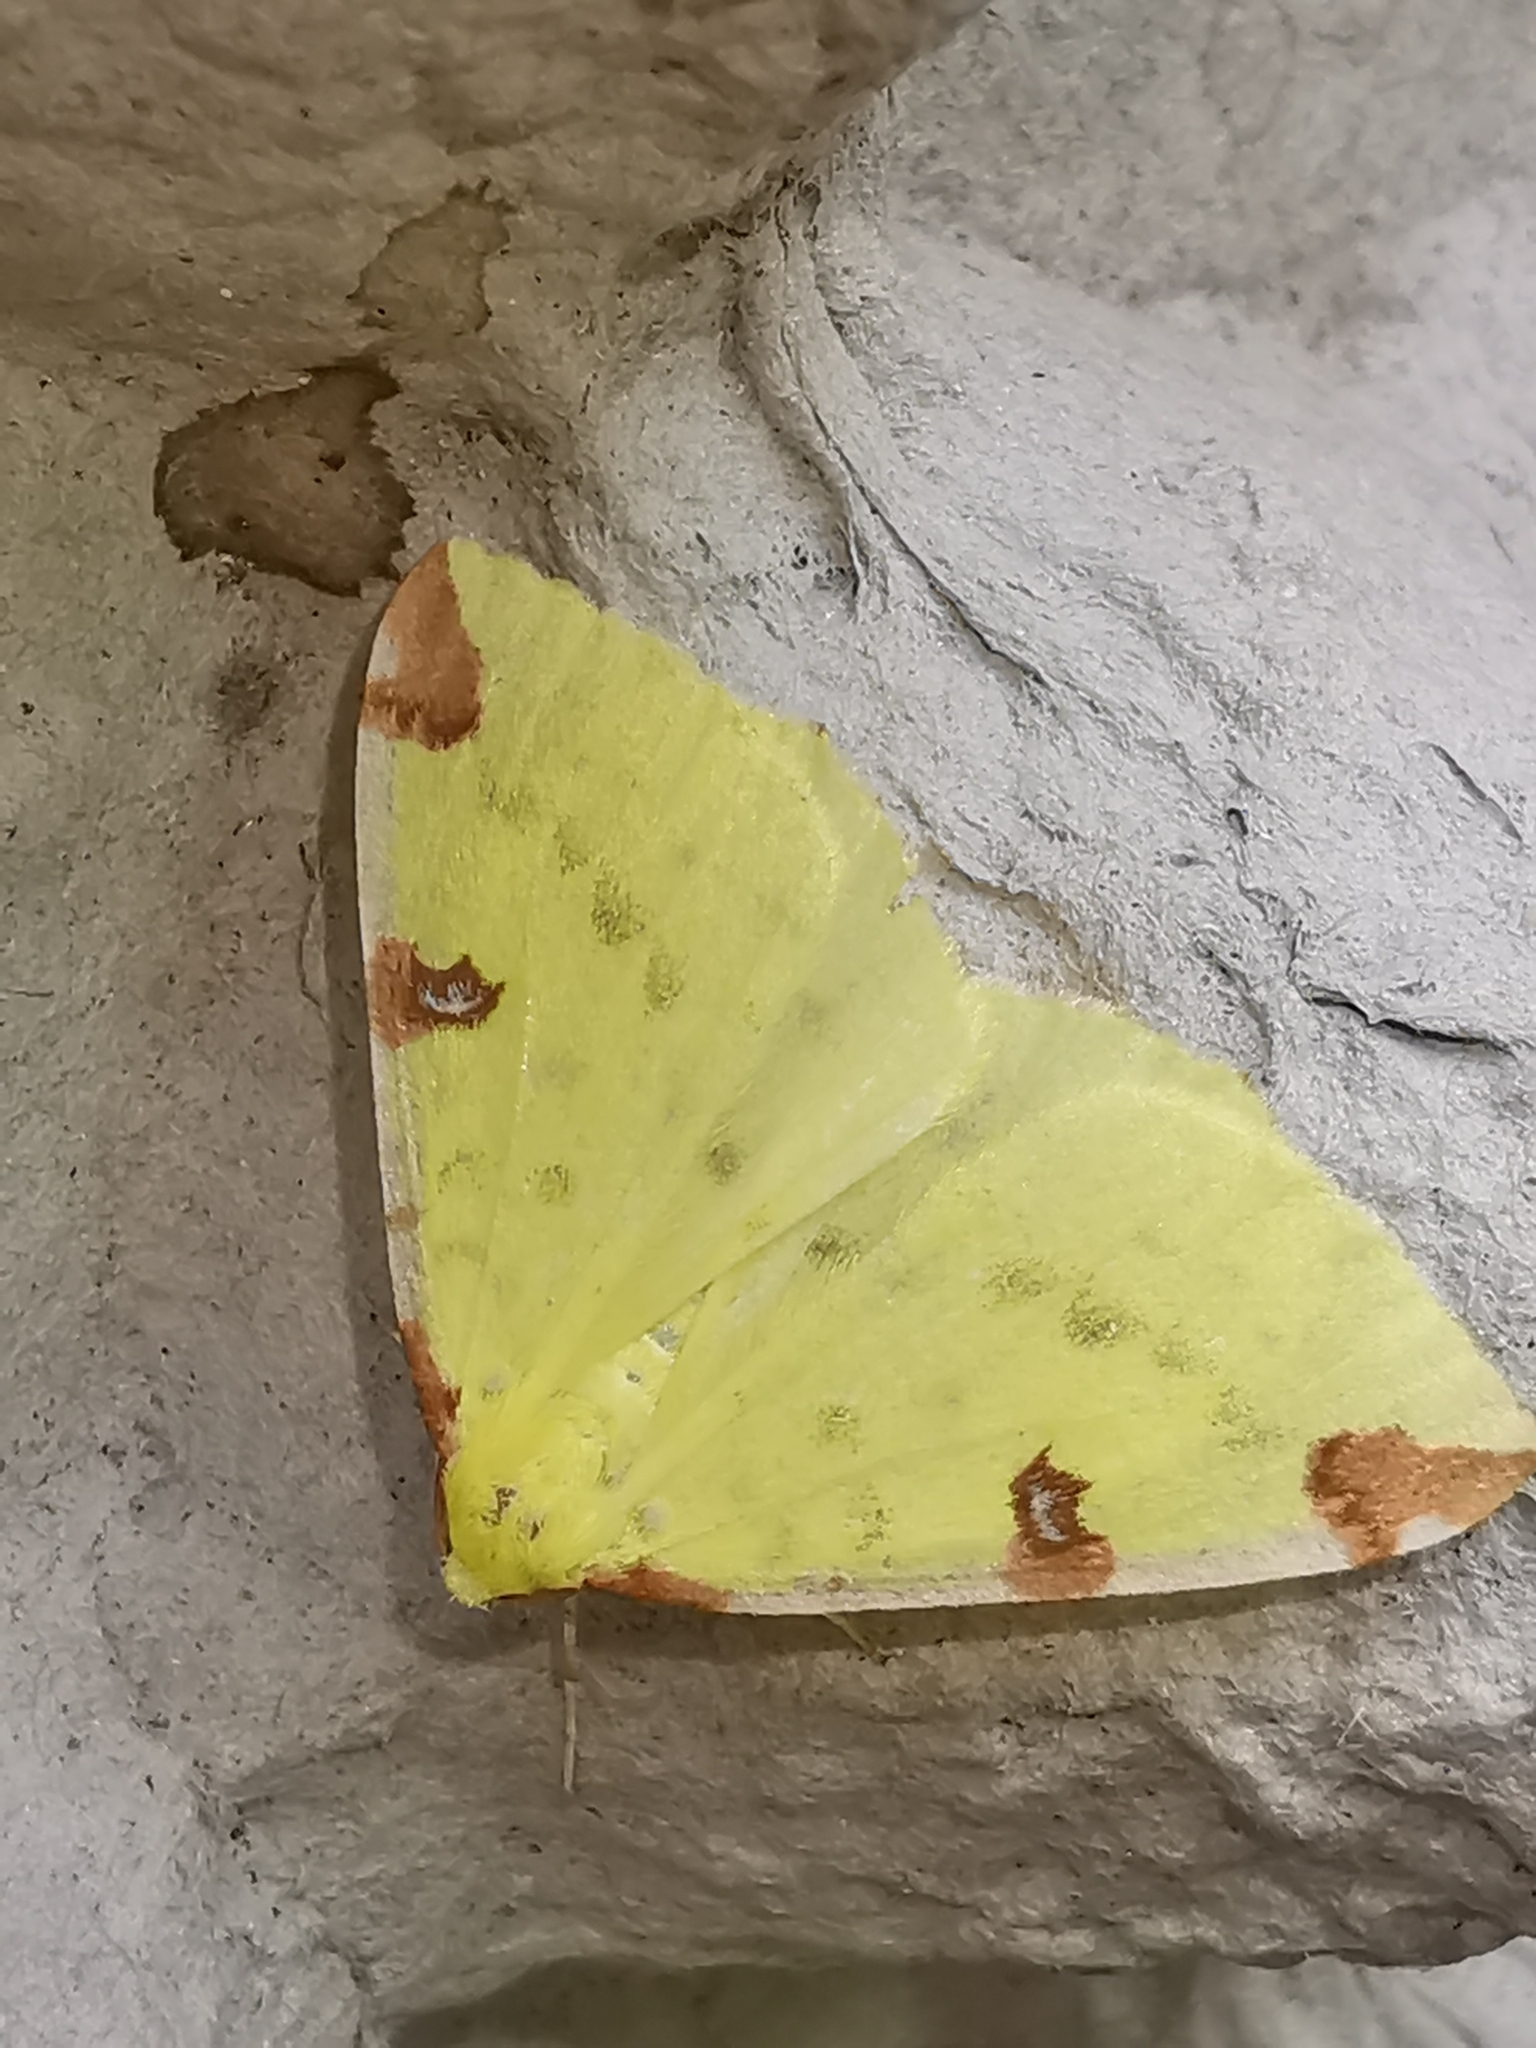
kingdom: Animalia
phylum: Arthropoda
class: Insecta
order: Lepidoptera
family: Geometridae
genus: Opisthograptis
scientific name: Opisthograptis luteolata
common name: Brimstone moth
